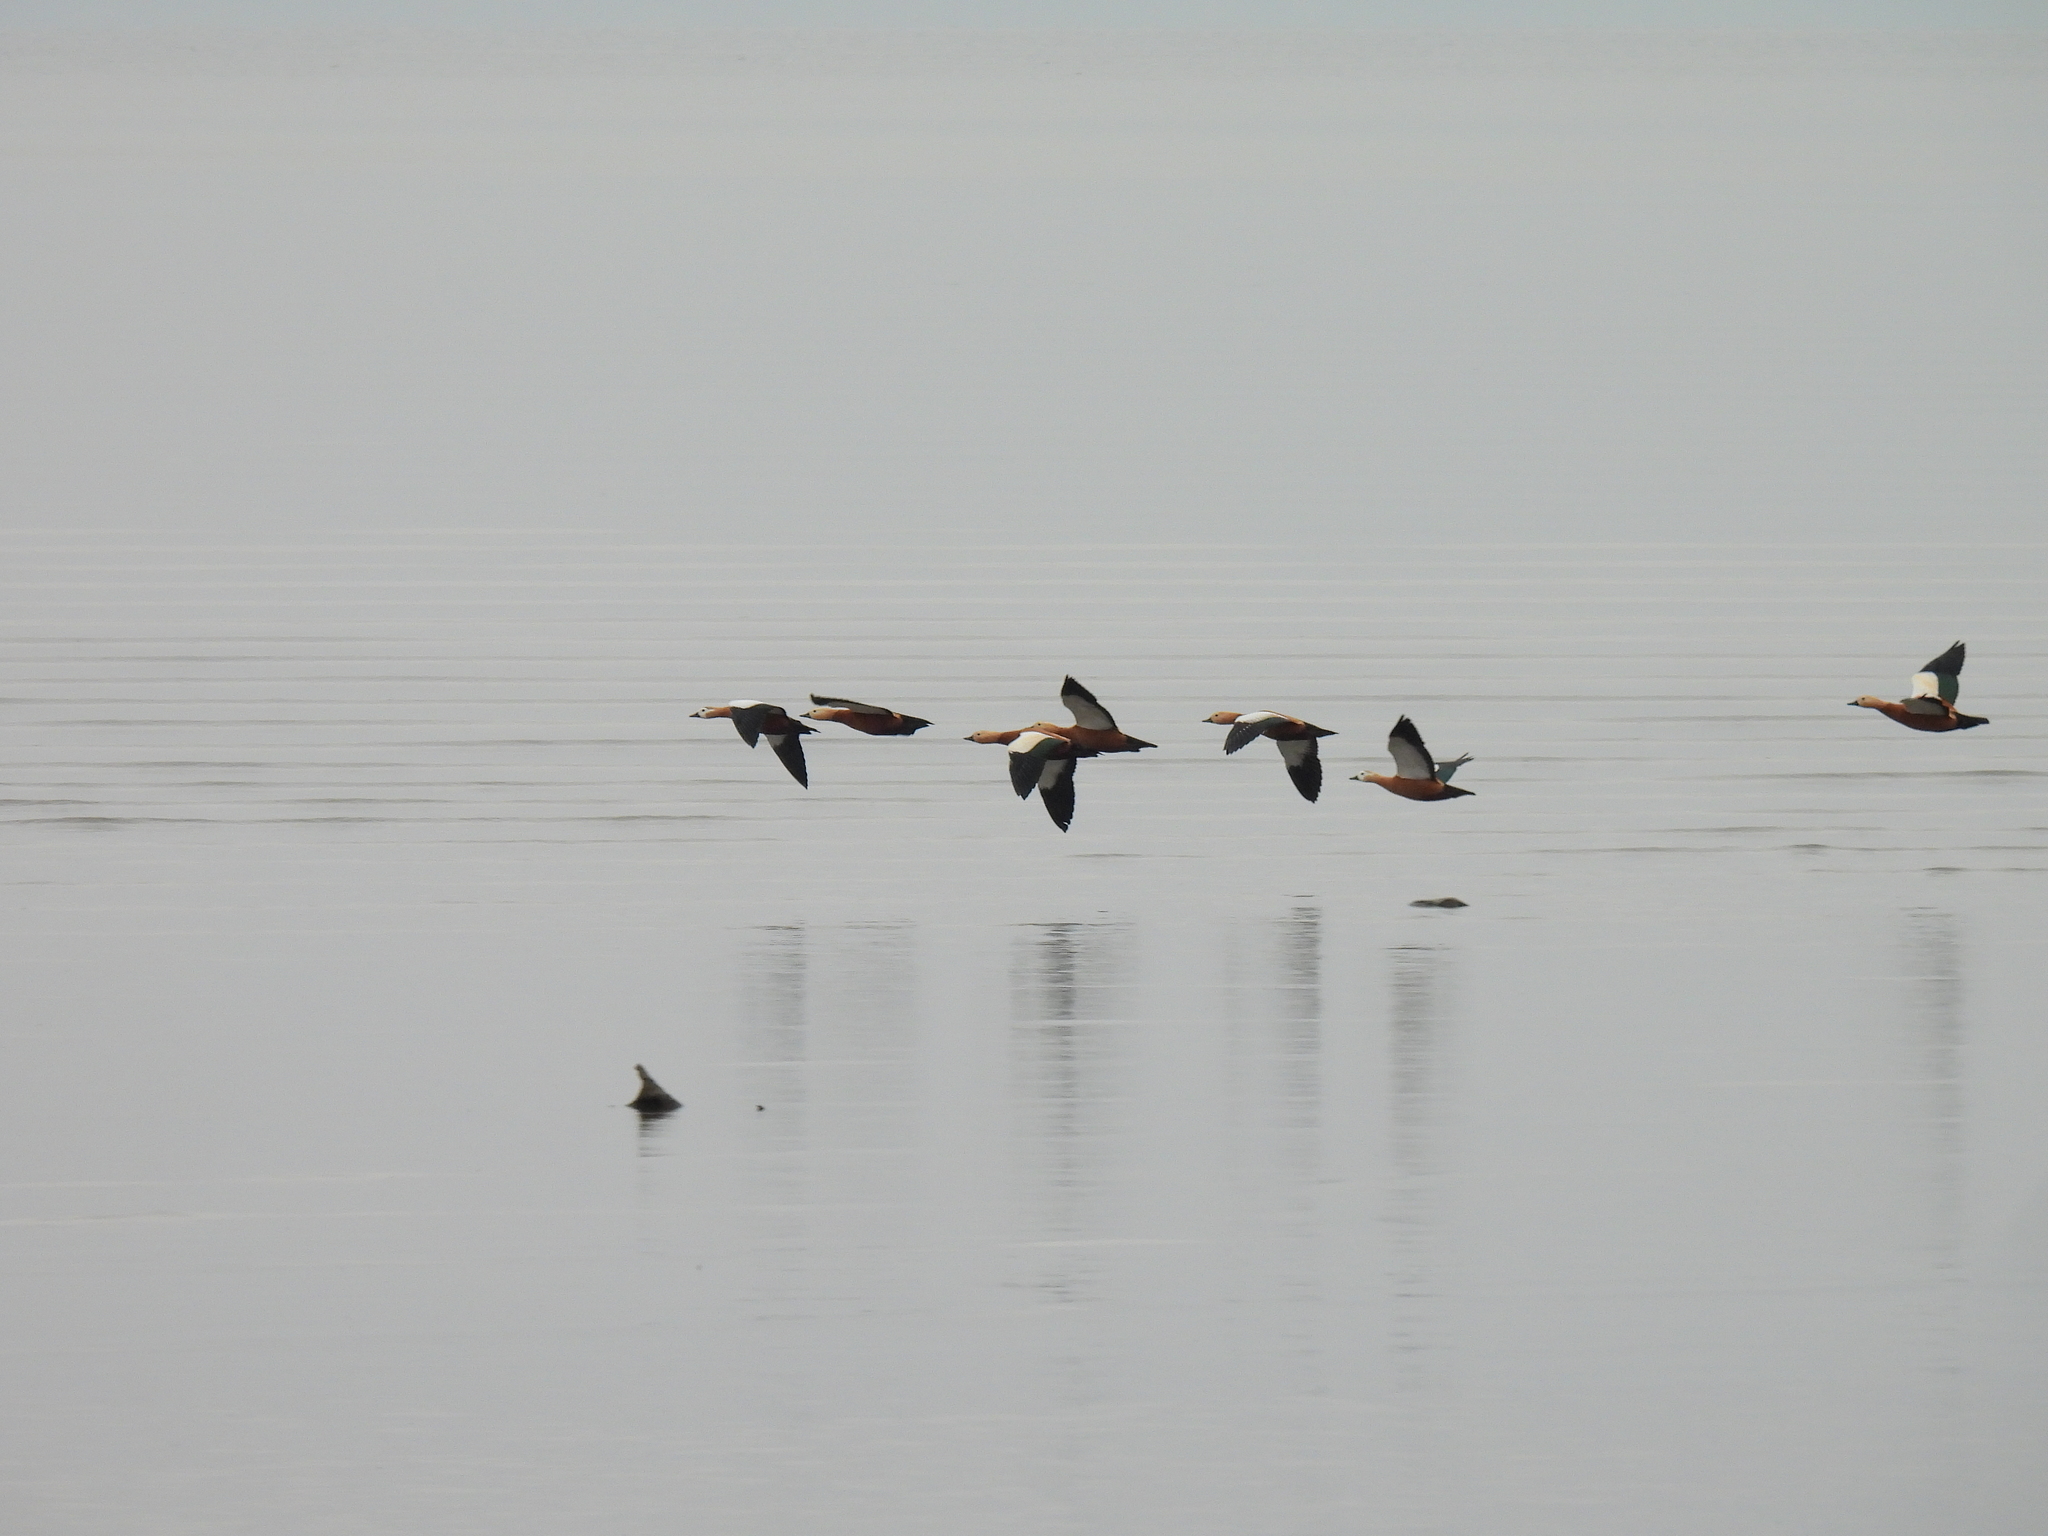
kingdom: Animalia
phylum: Chordata
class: Aves
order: Anseriformes
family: Anatidae
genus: Tadorna
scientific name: Tadorna ferruginea
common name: Ruddy shelduck
